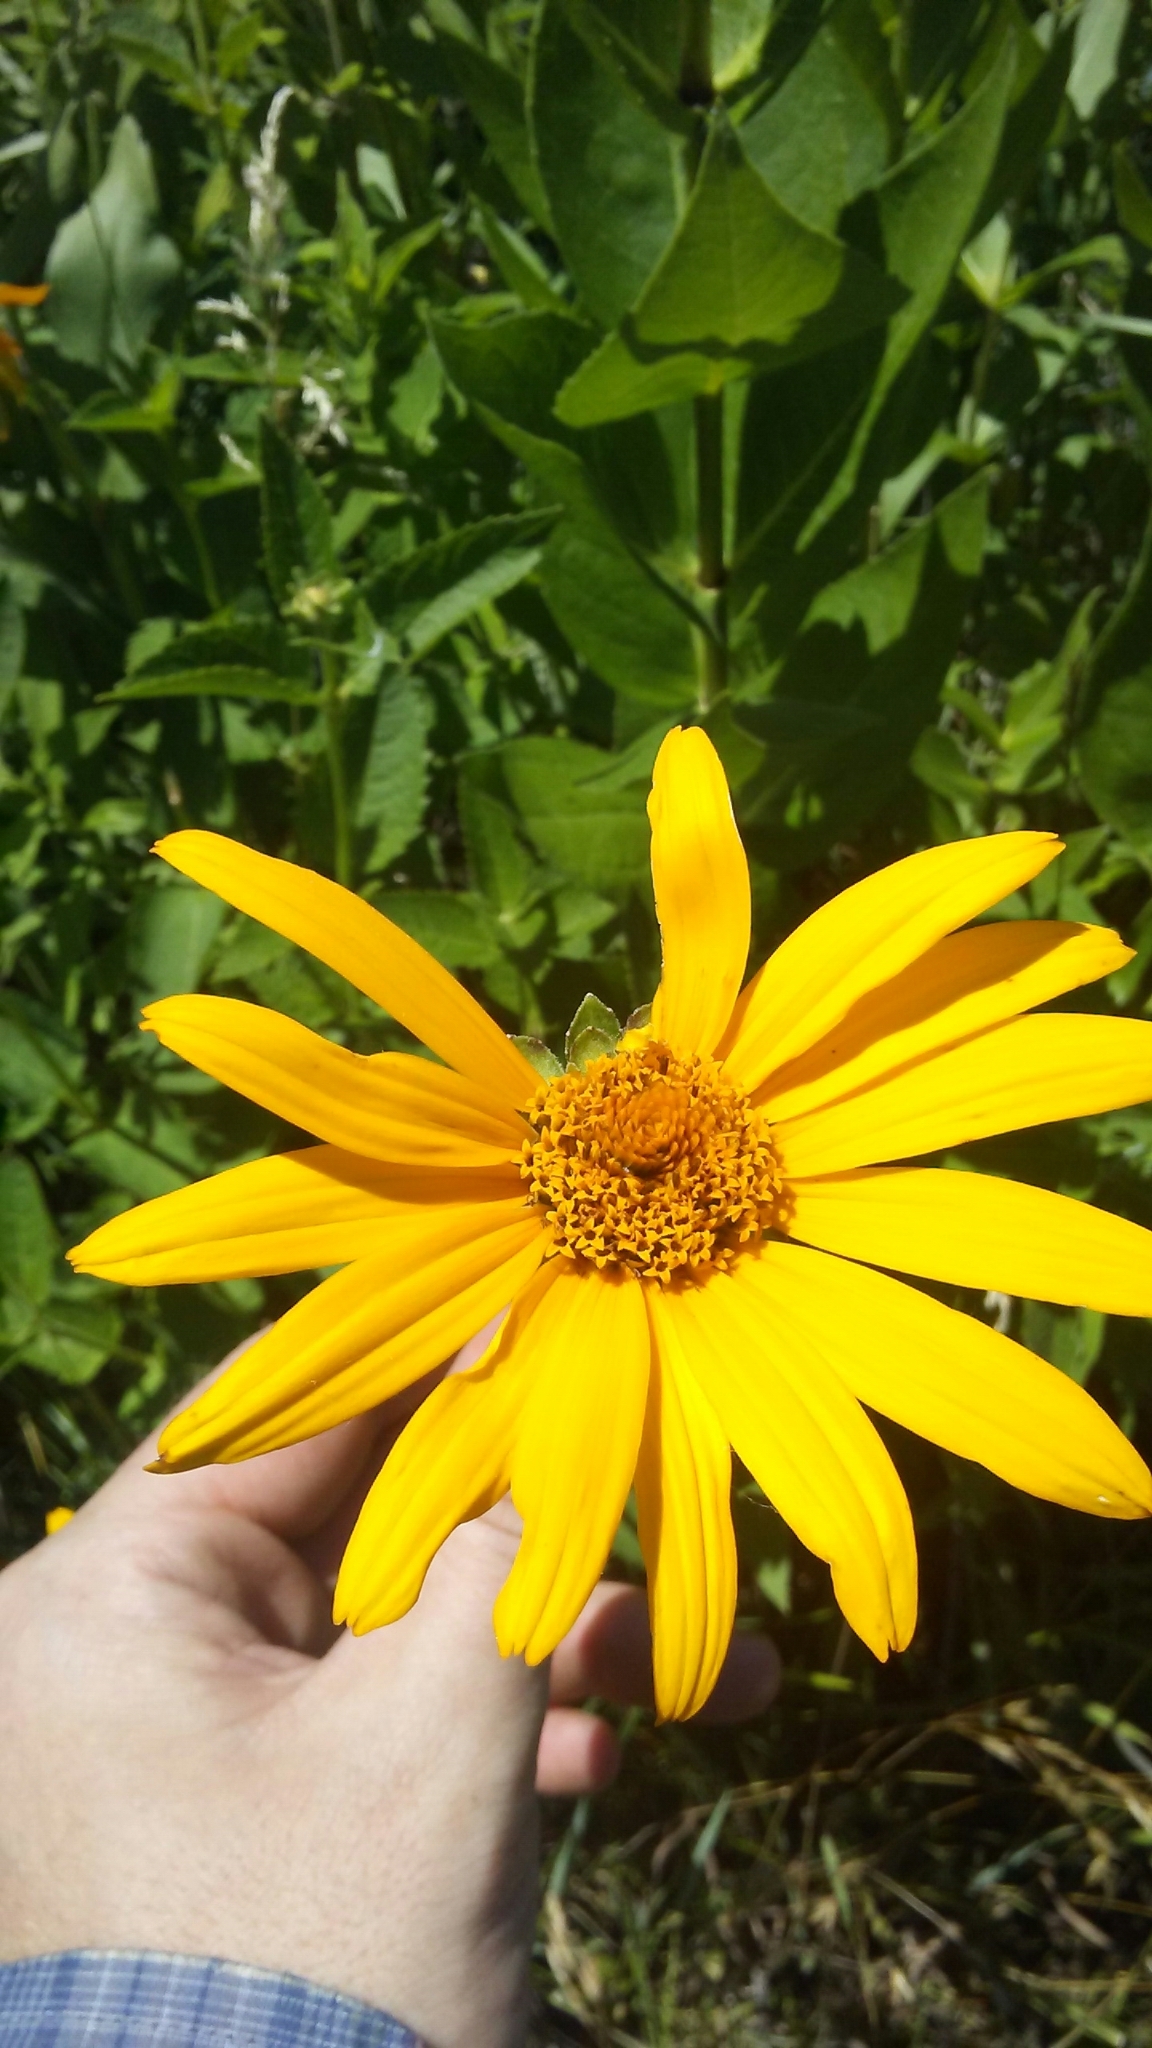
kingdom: Plantae
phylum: Tracheophyta
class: Magnoliopsida
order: Asterales
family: Asteraceae
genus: Heliopsis
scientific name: Heliopsis helianthoides
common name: False sunflower
